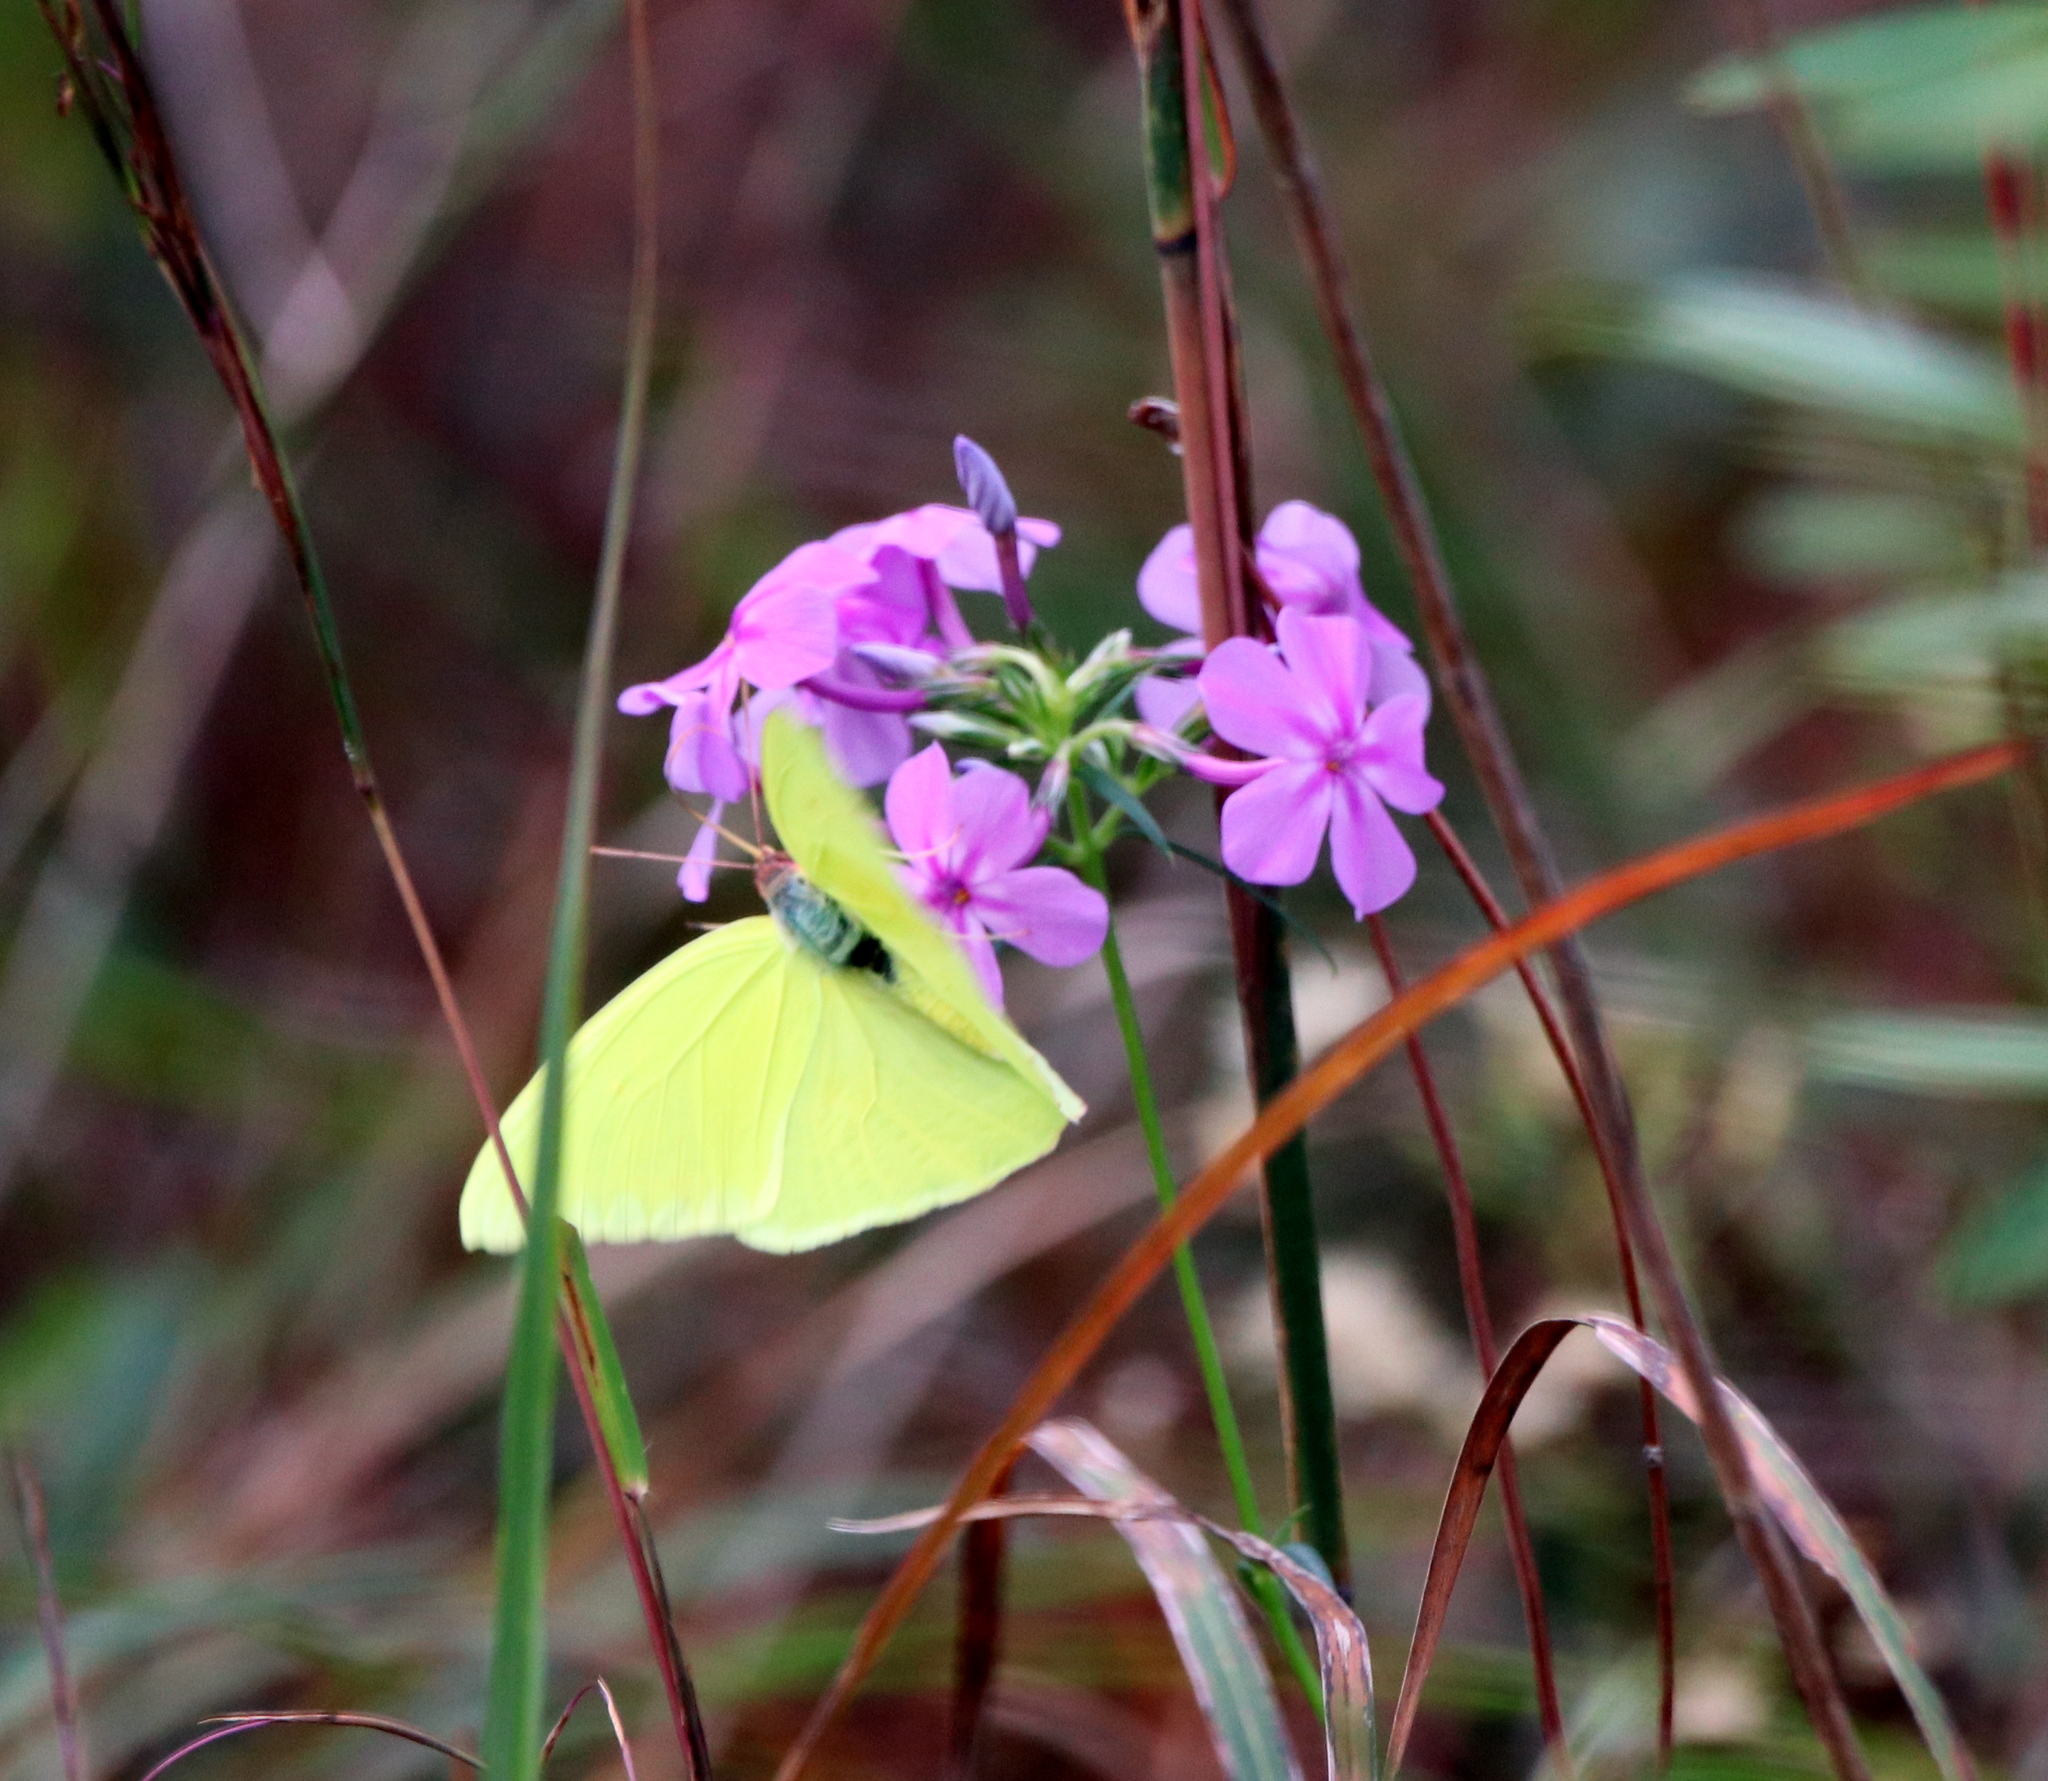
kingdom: Animalia
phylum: Arthropoda
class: Insecta
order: Lepidoptera
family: Pieridae
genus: Phoebis
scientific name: Phoebis sennae
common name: Cloudless sulphur
